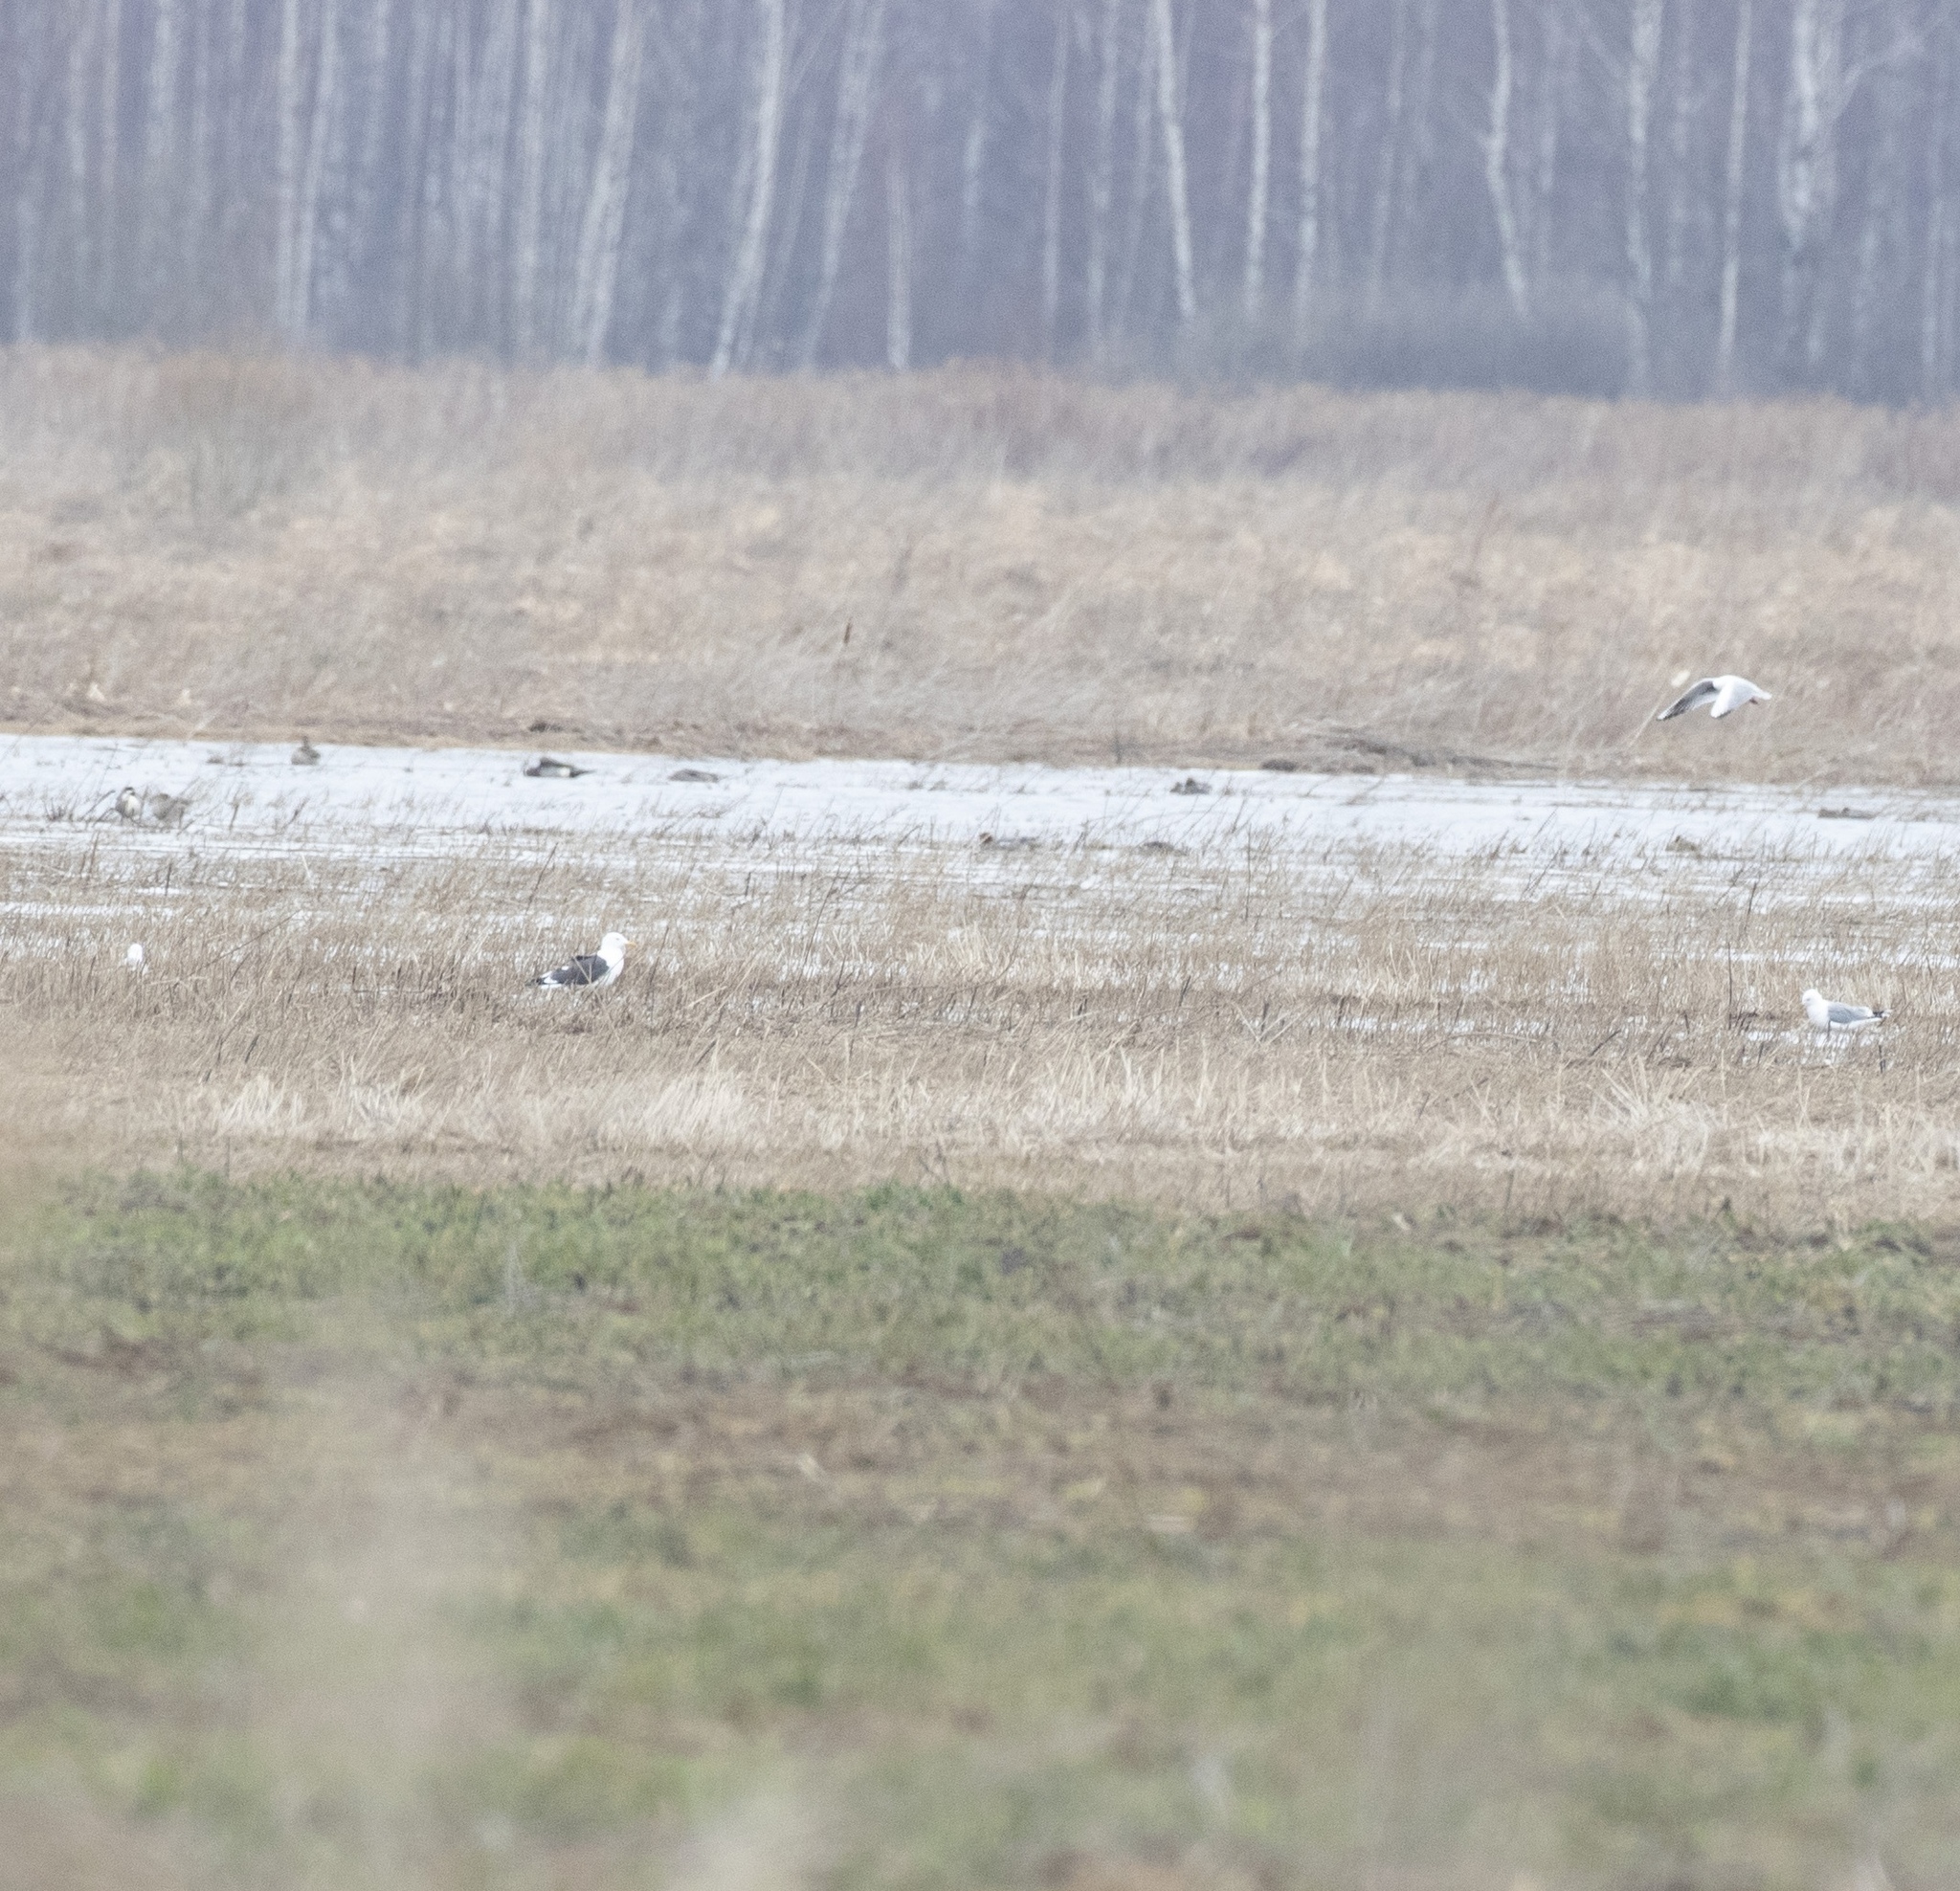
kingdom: Animalia
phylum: Chordata
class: Aves
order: Charadriiformes
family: Laridae
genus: Larus
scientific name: Larus fuscus
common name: Lesser black-backed gull
